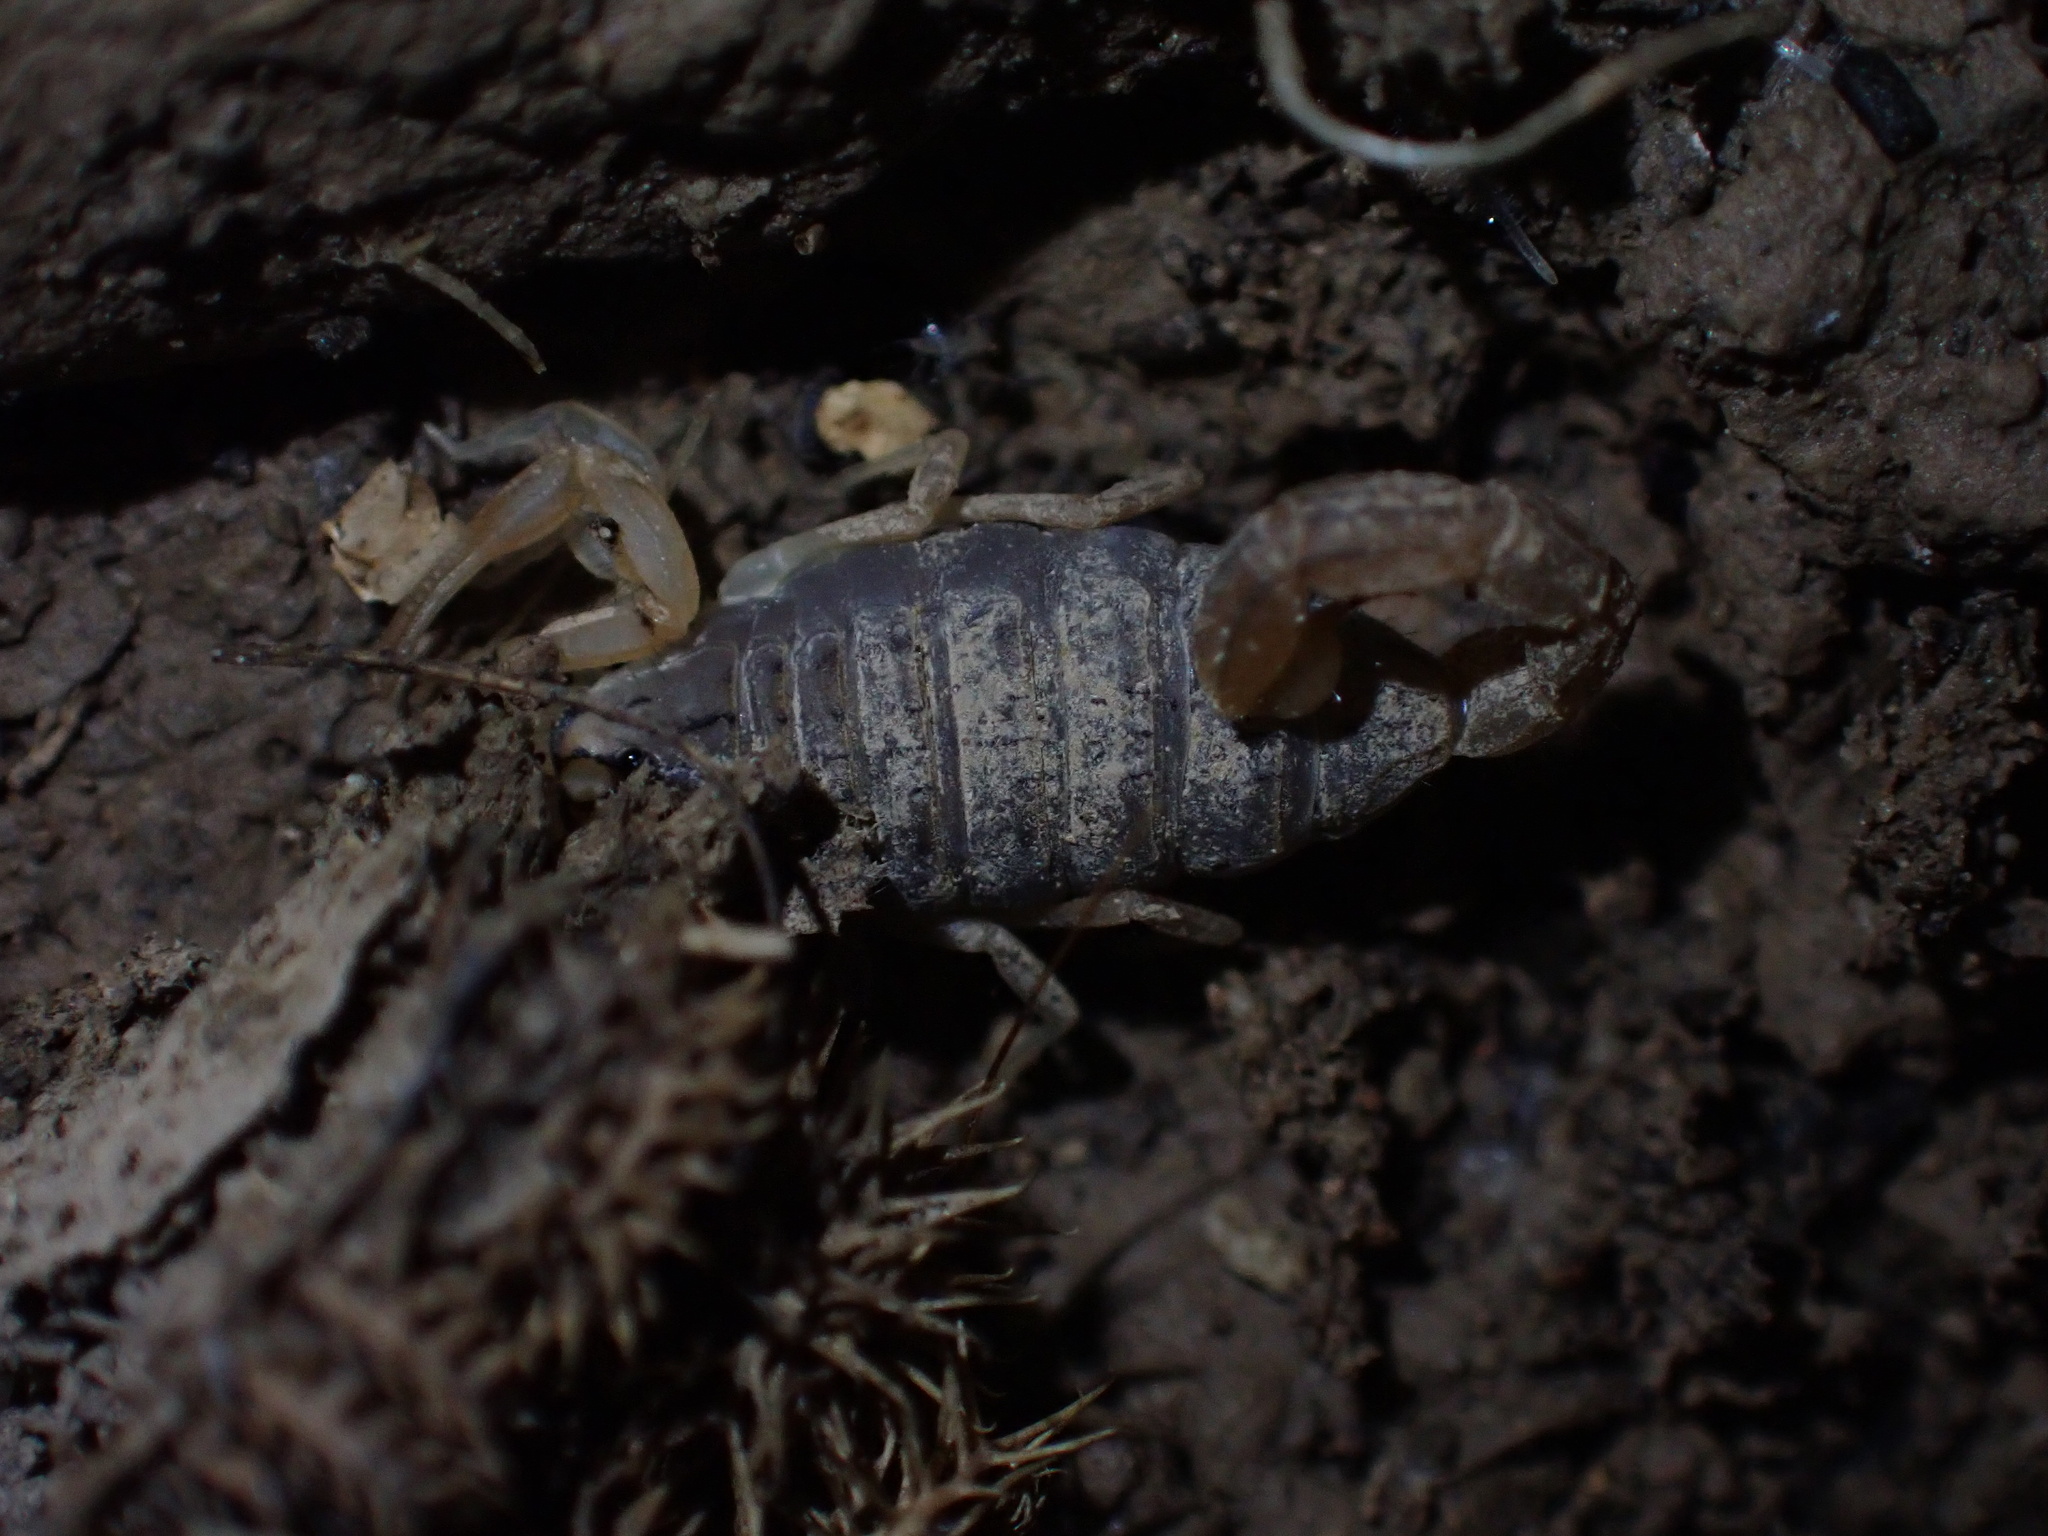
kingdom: Animalia
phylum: Arthropoda
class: Arachnida
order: Scorpiones
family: Buthidae
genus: Mesobuthus
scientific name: Mesobuthus phillipsi
